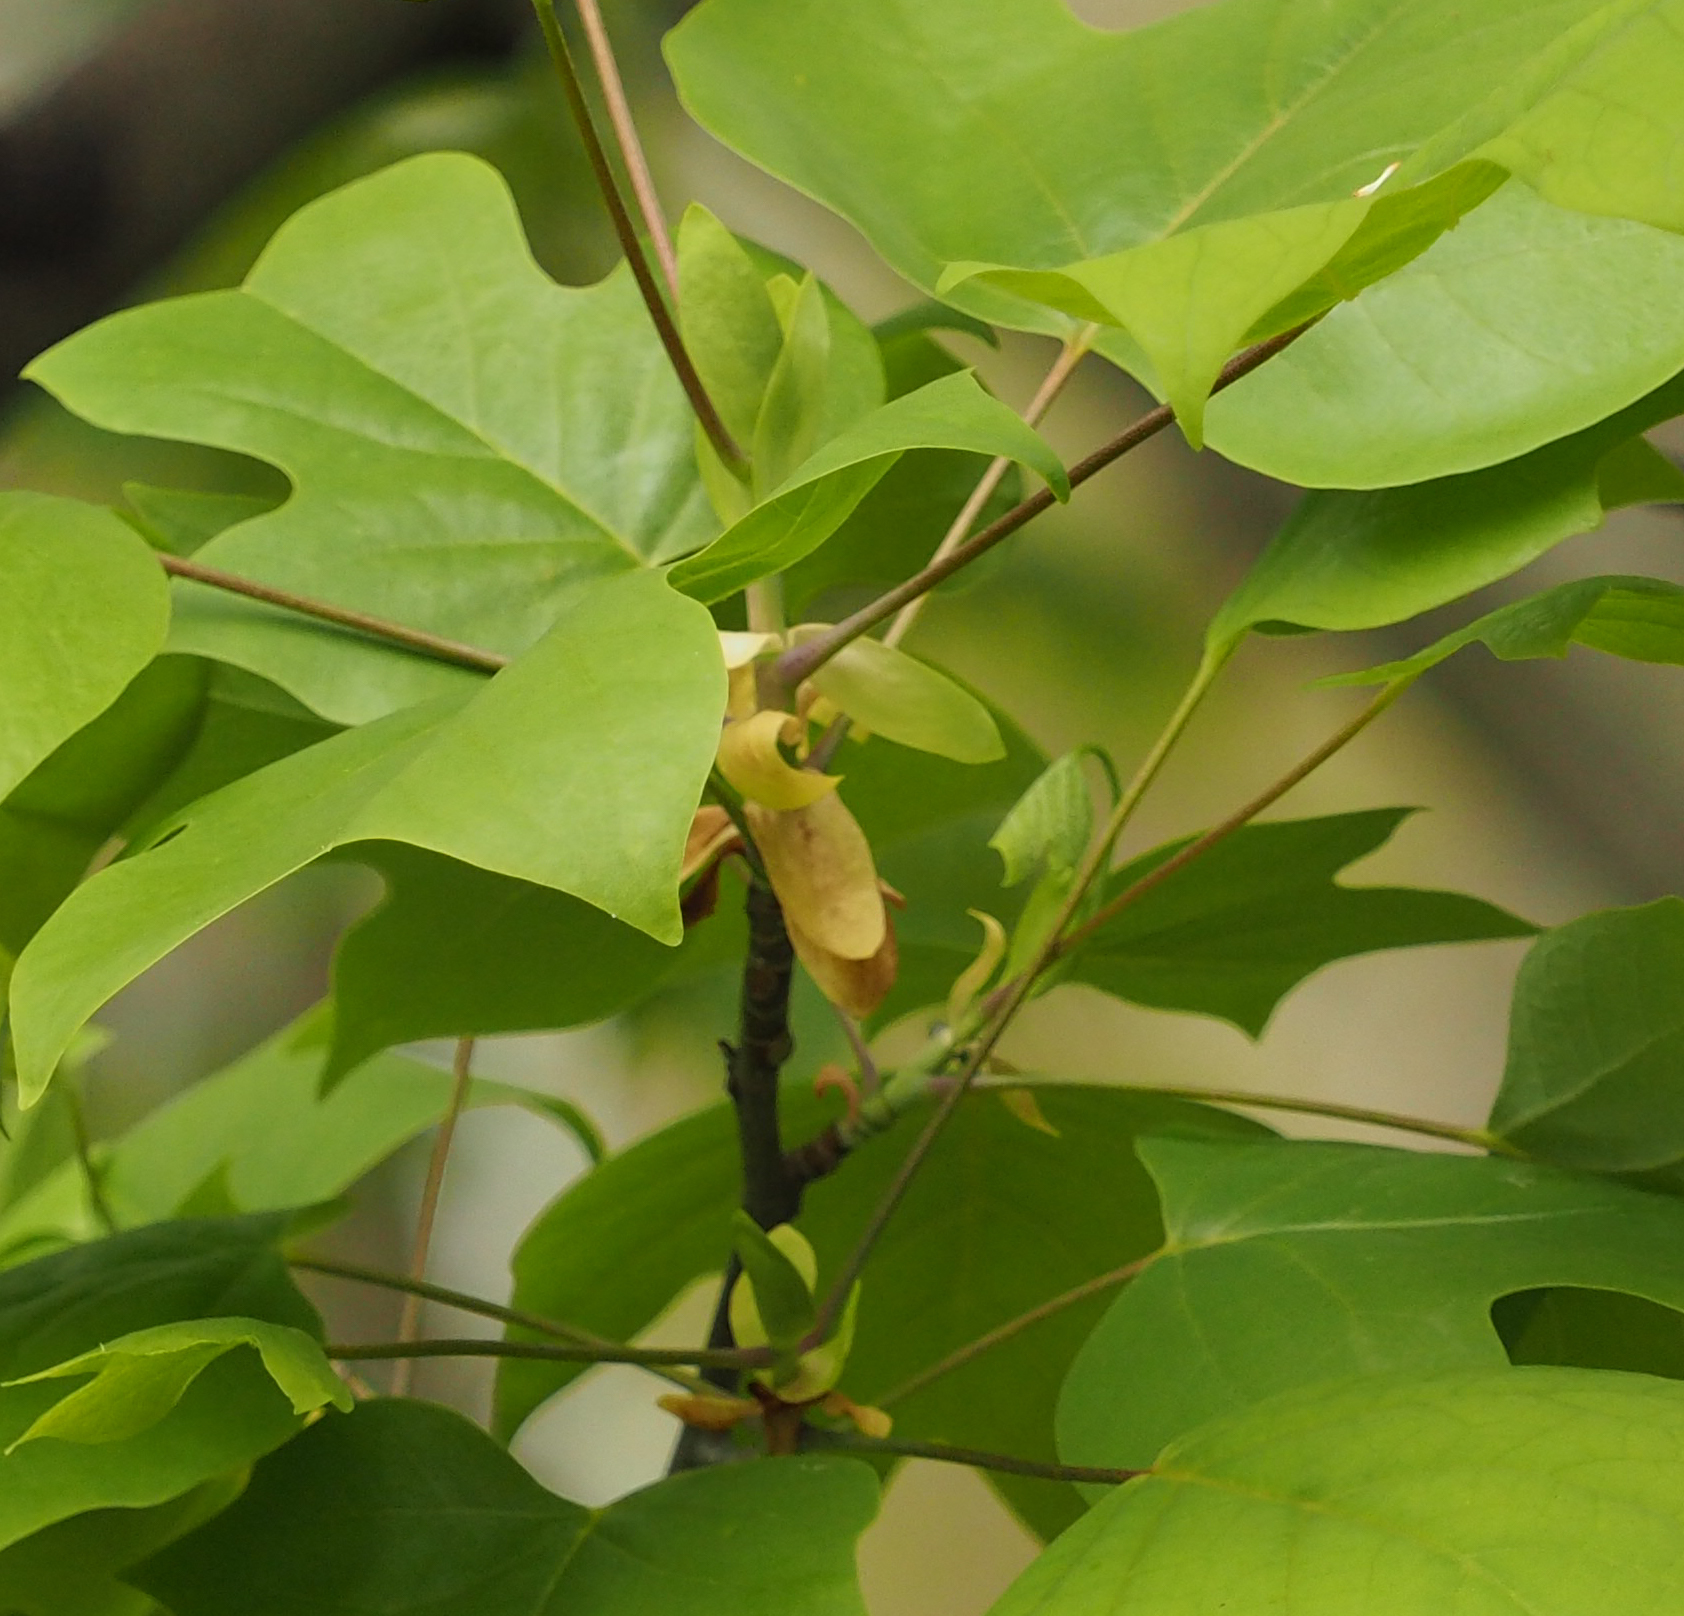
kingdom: Plantae
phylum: Tracheophyta
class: Magnoliopsida
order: Magnoliales
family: Magnoliaceae
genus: Liriodendron
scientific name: Liriodendron tulipifera
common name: Tulip tree
